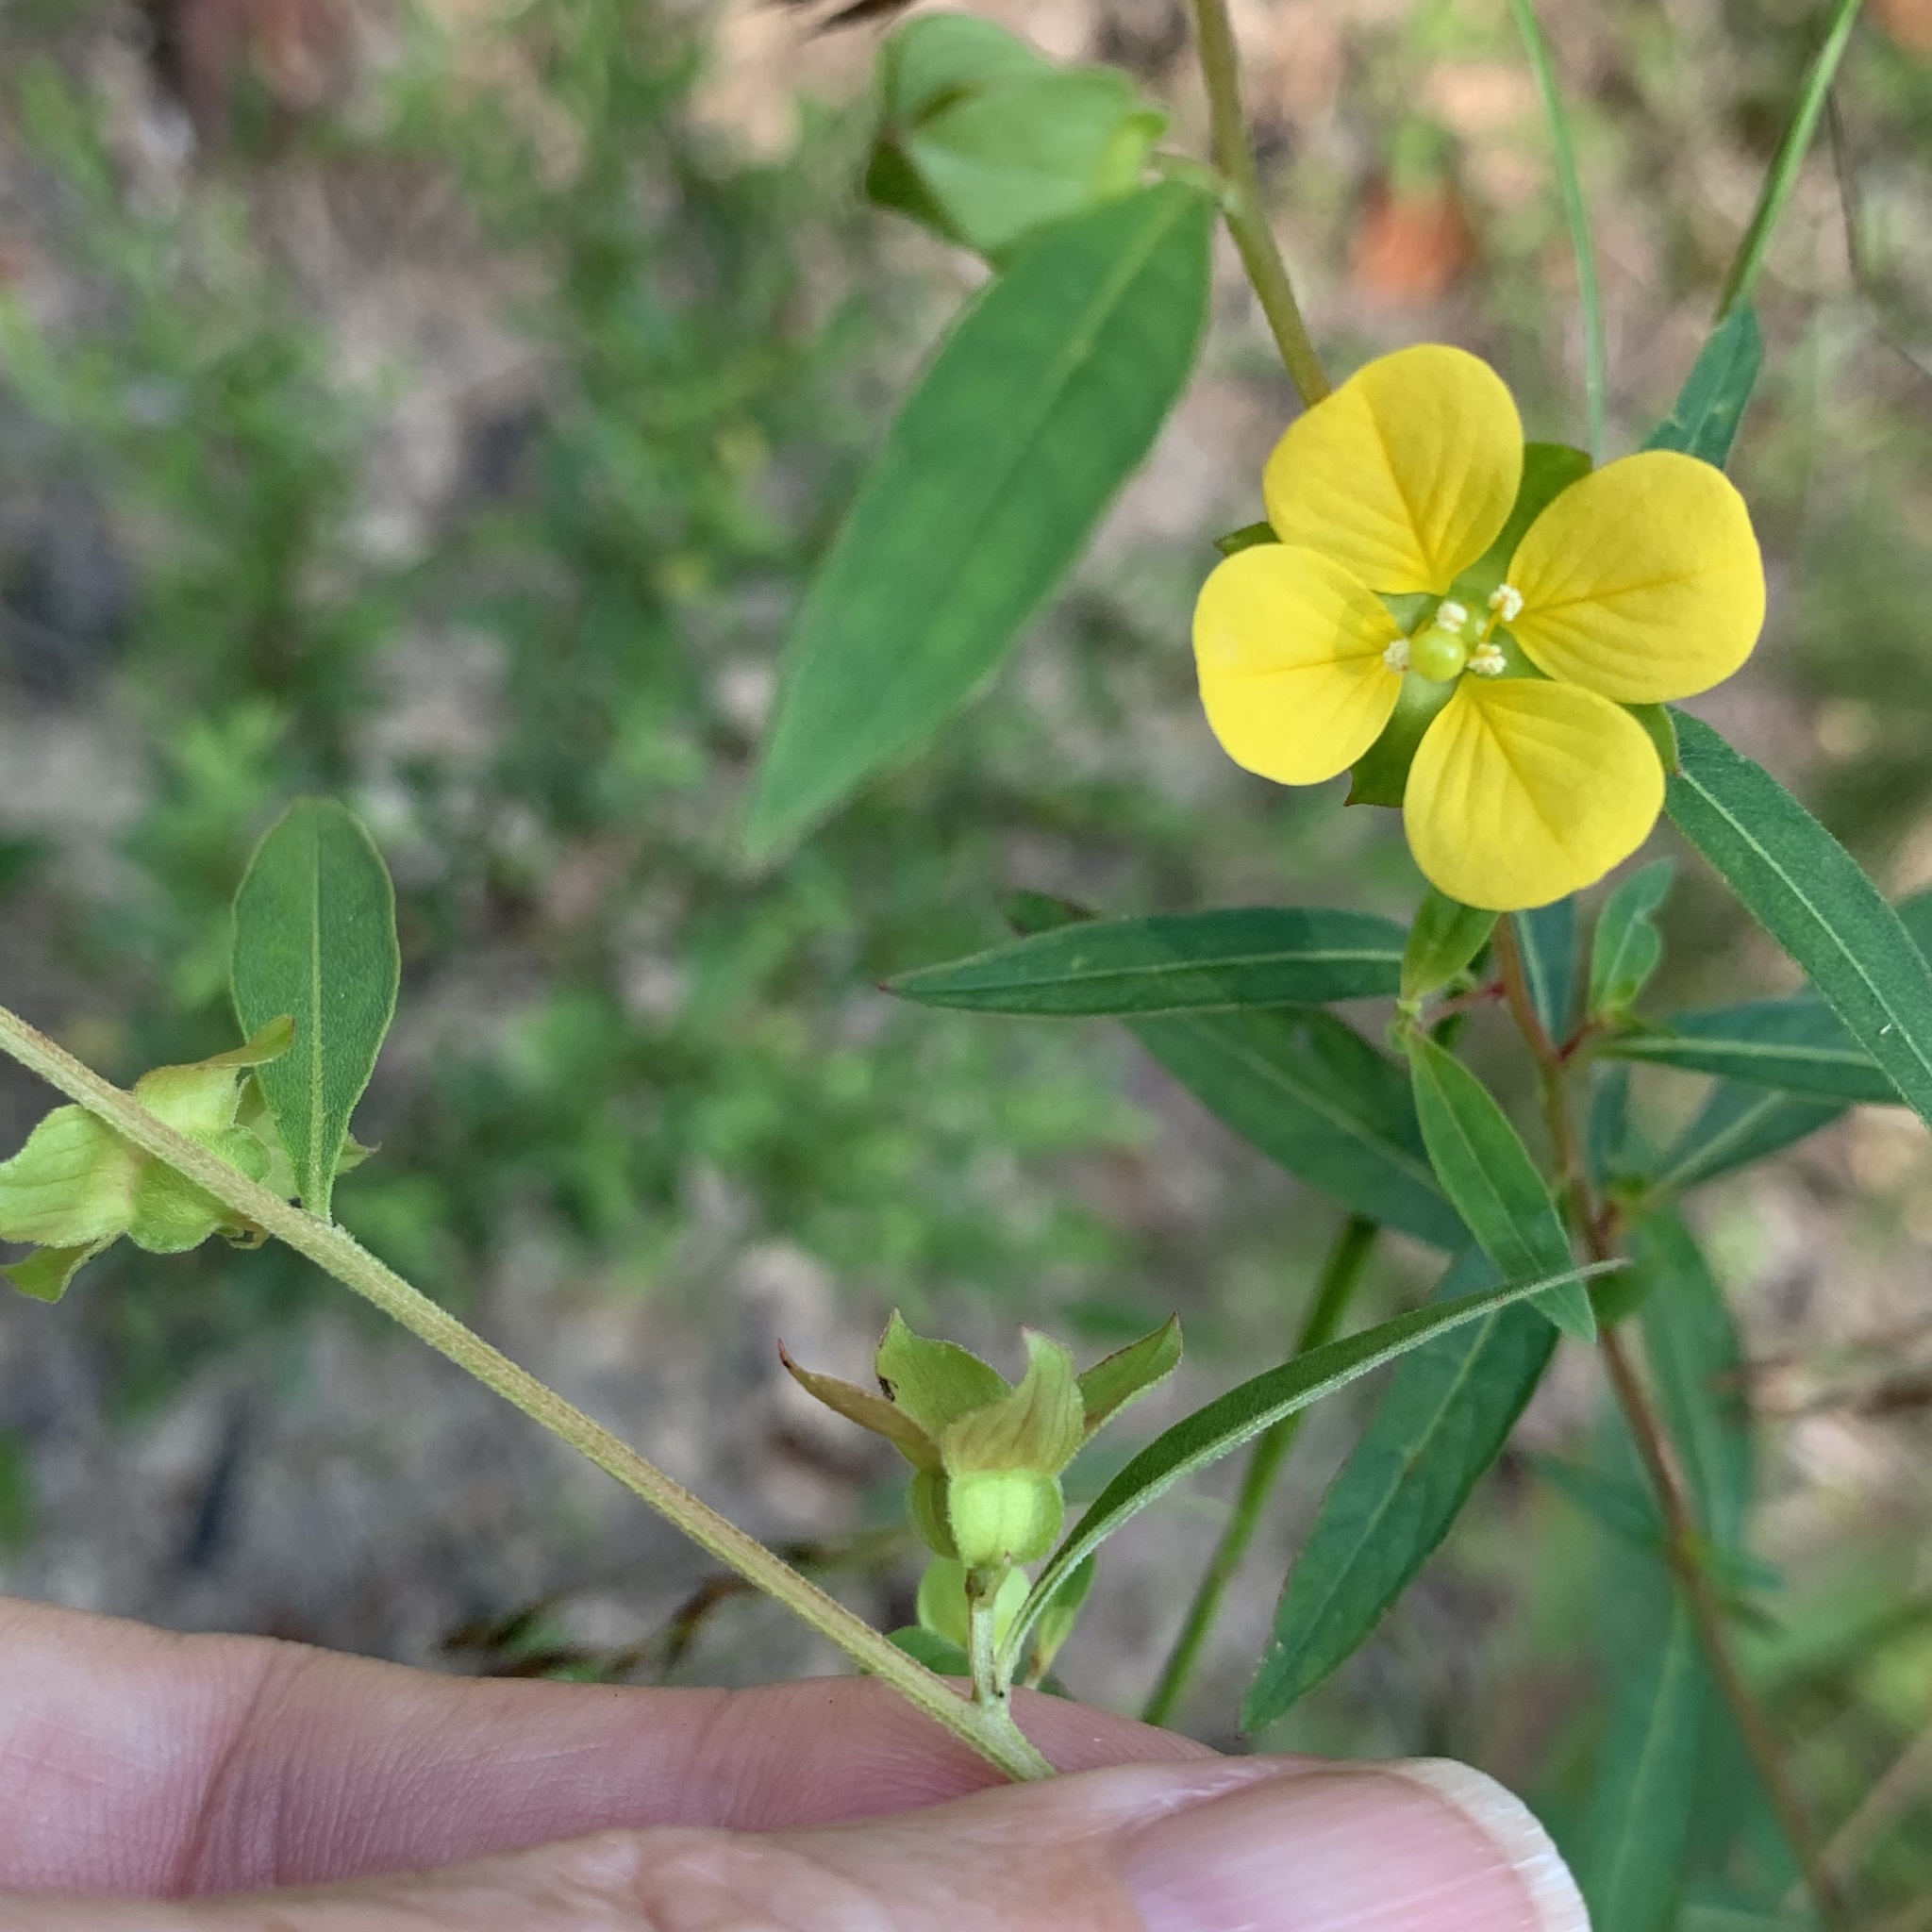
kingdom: Plantae
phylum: Tracheophyta
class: Magnoliopsida
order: Myrtales
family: Onagraceae
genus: Ludwigia
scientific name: Ludwigia alternifolia
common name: Rattlebox
